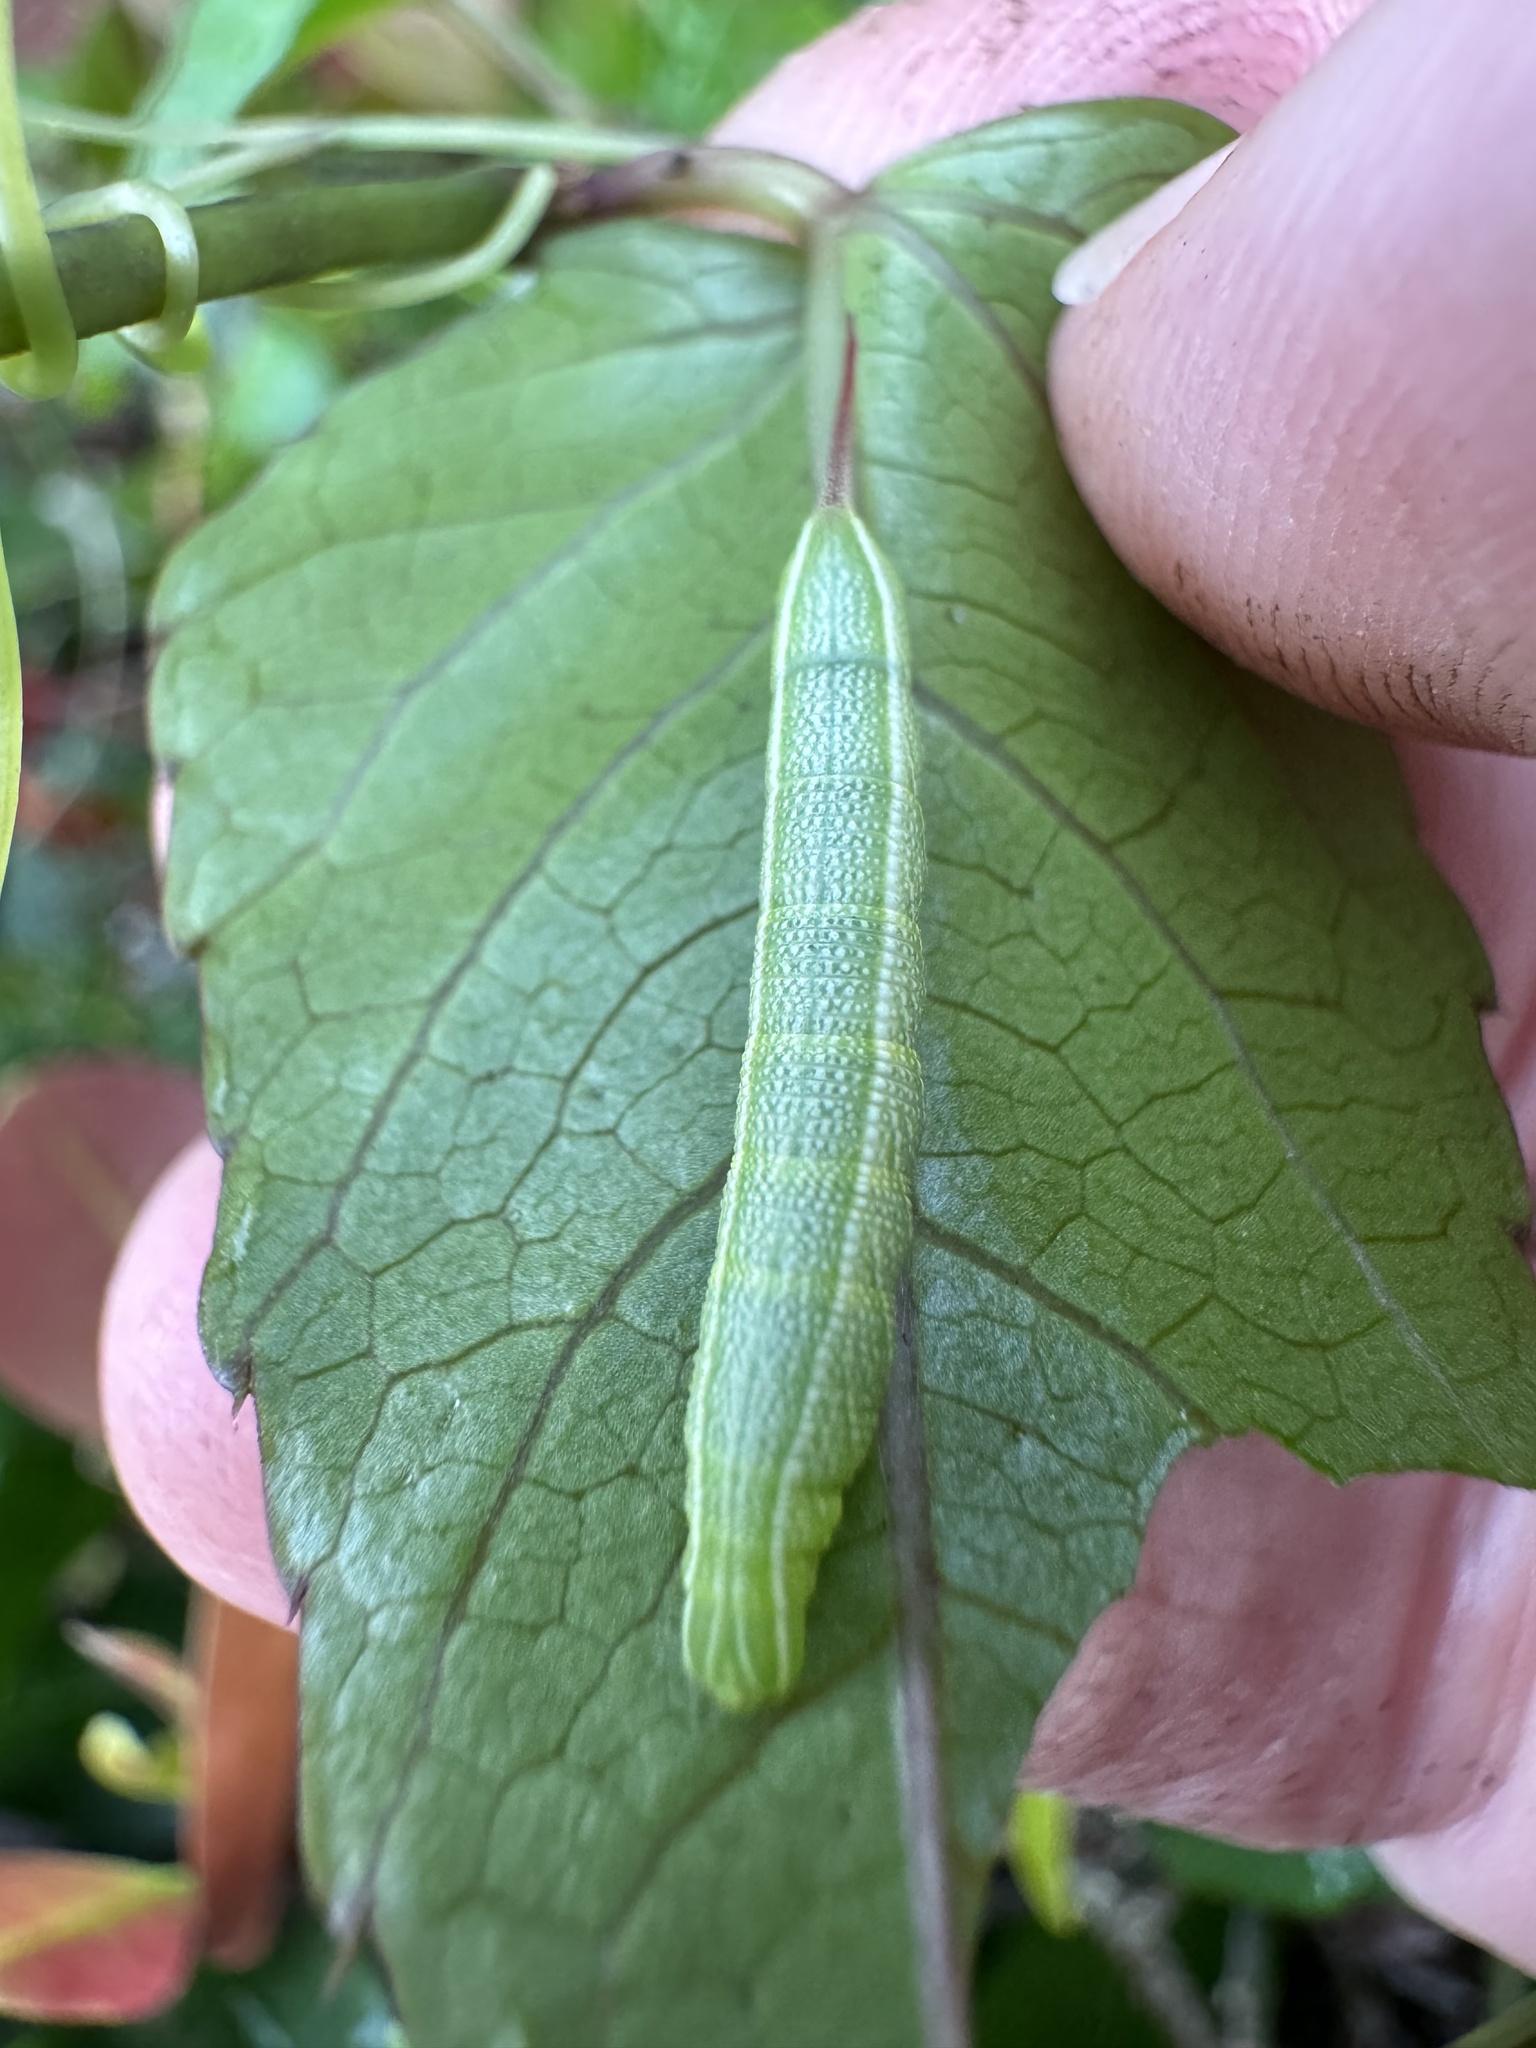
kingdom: Animalia
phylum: Arthropoda
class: Insecta
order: Lepidoptera
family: Sphingidae
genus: Enyo
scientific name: Enyo lugubris
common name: Mournful sphinx
